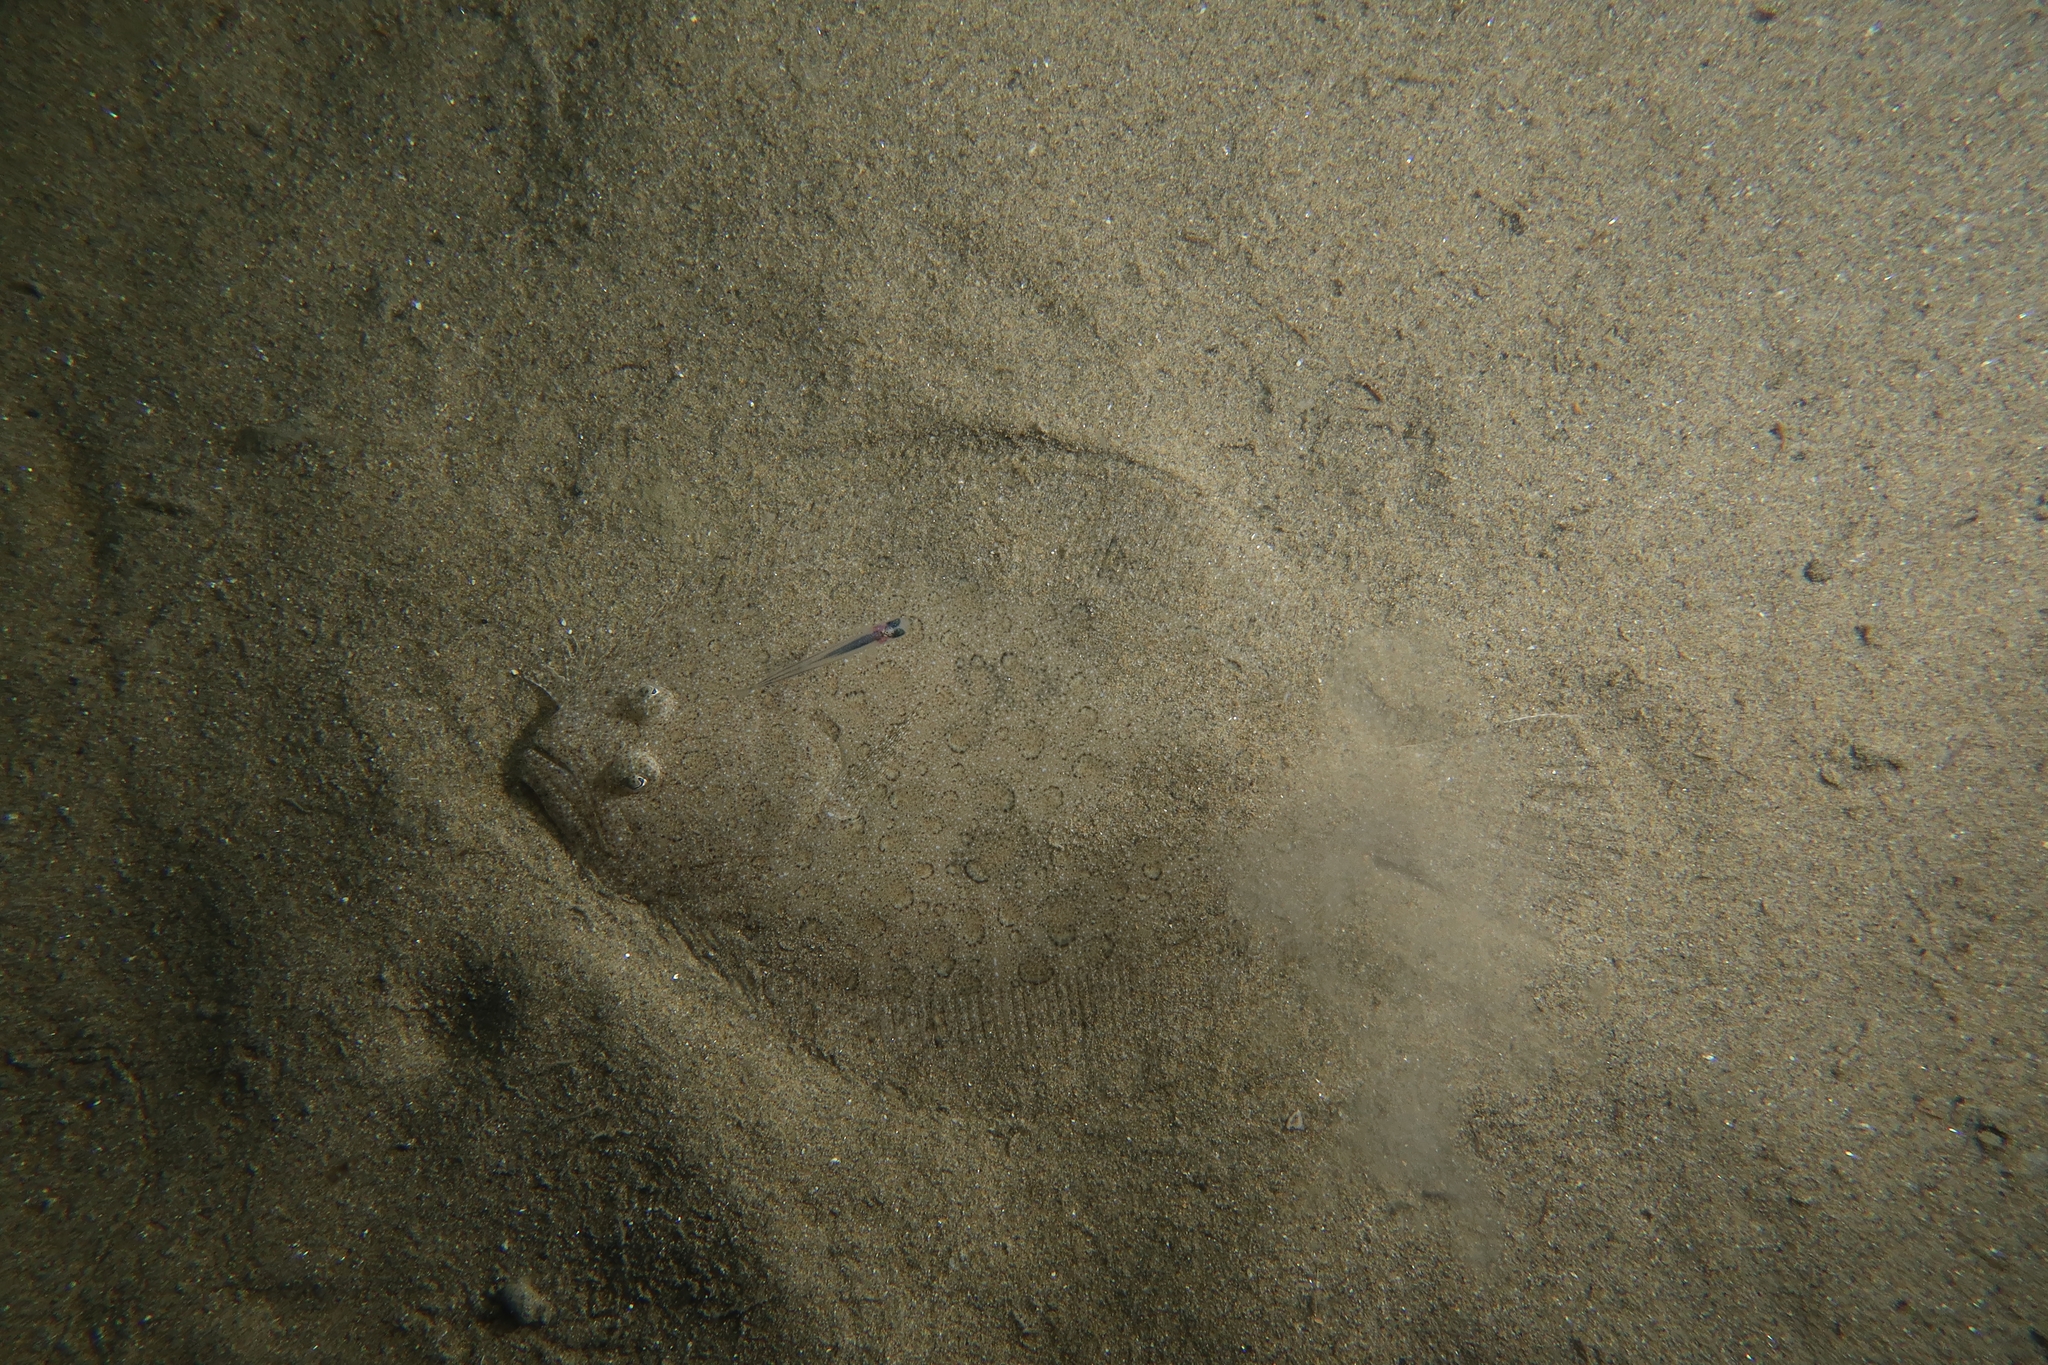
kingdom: Animalia
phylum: Chordata
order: Pleuronectiformes
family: Scophthalmidae
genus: Scophthalmus
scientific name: Scophthalmus rhombus
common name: Brill
